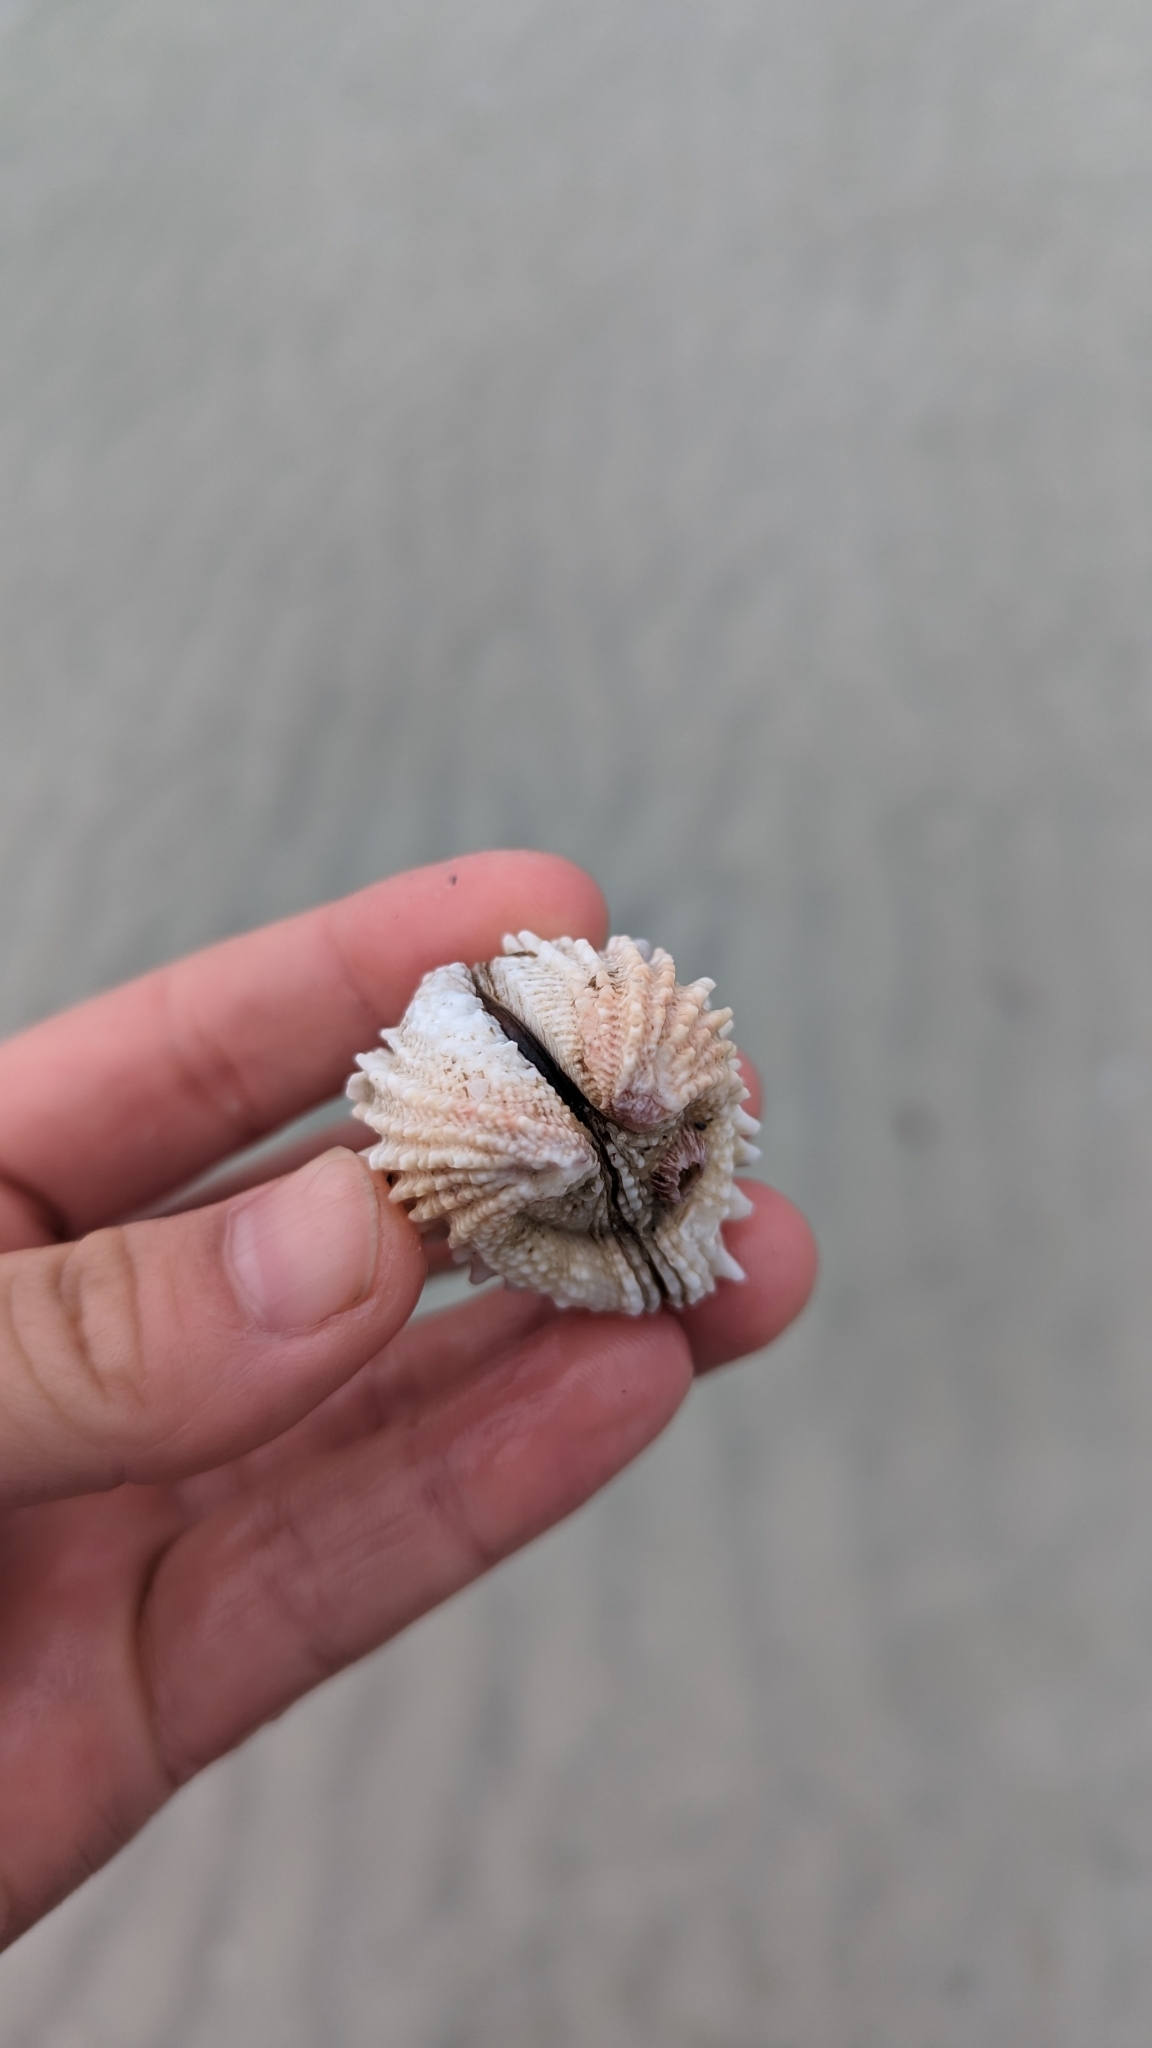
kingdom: Animalia
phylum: Mollusca
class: Bivalvia
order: Venerida
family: Chamidae
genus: Arcinella
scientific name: Arcinella cornuta
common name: Florida spiny jewel box
